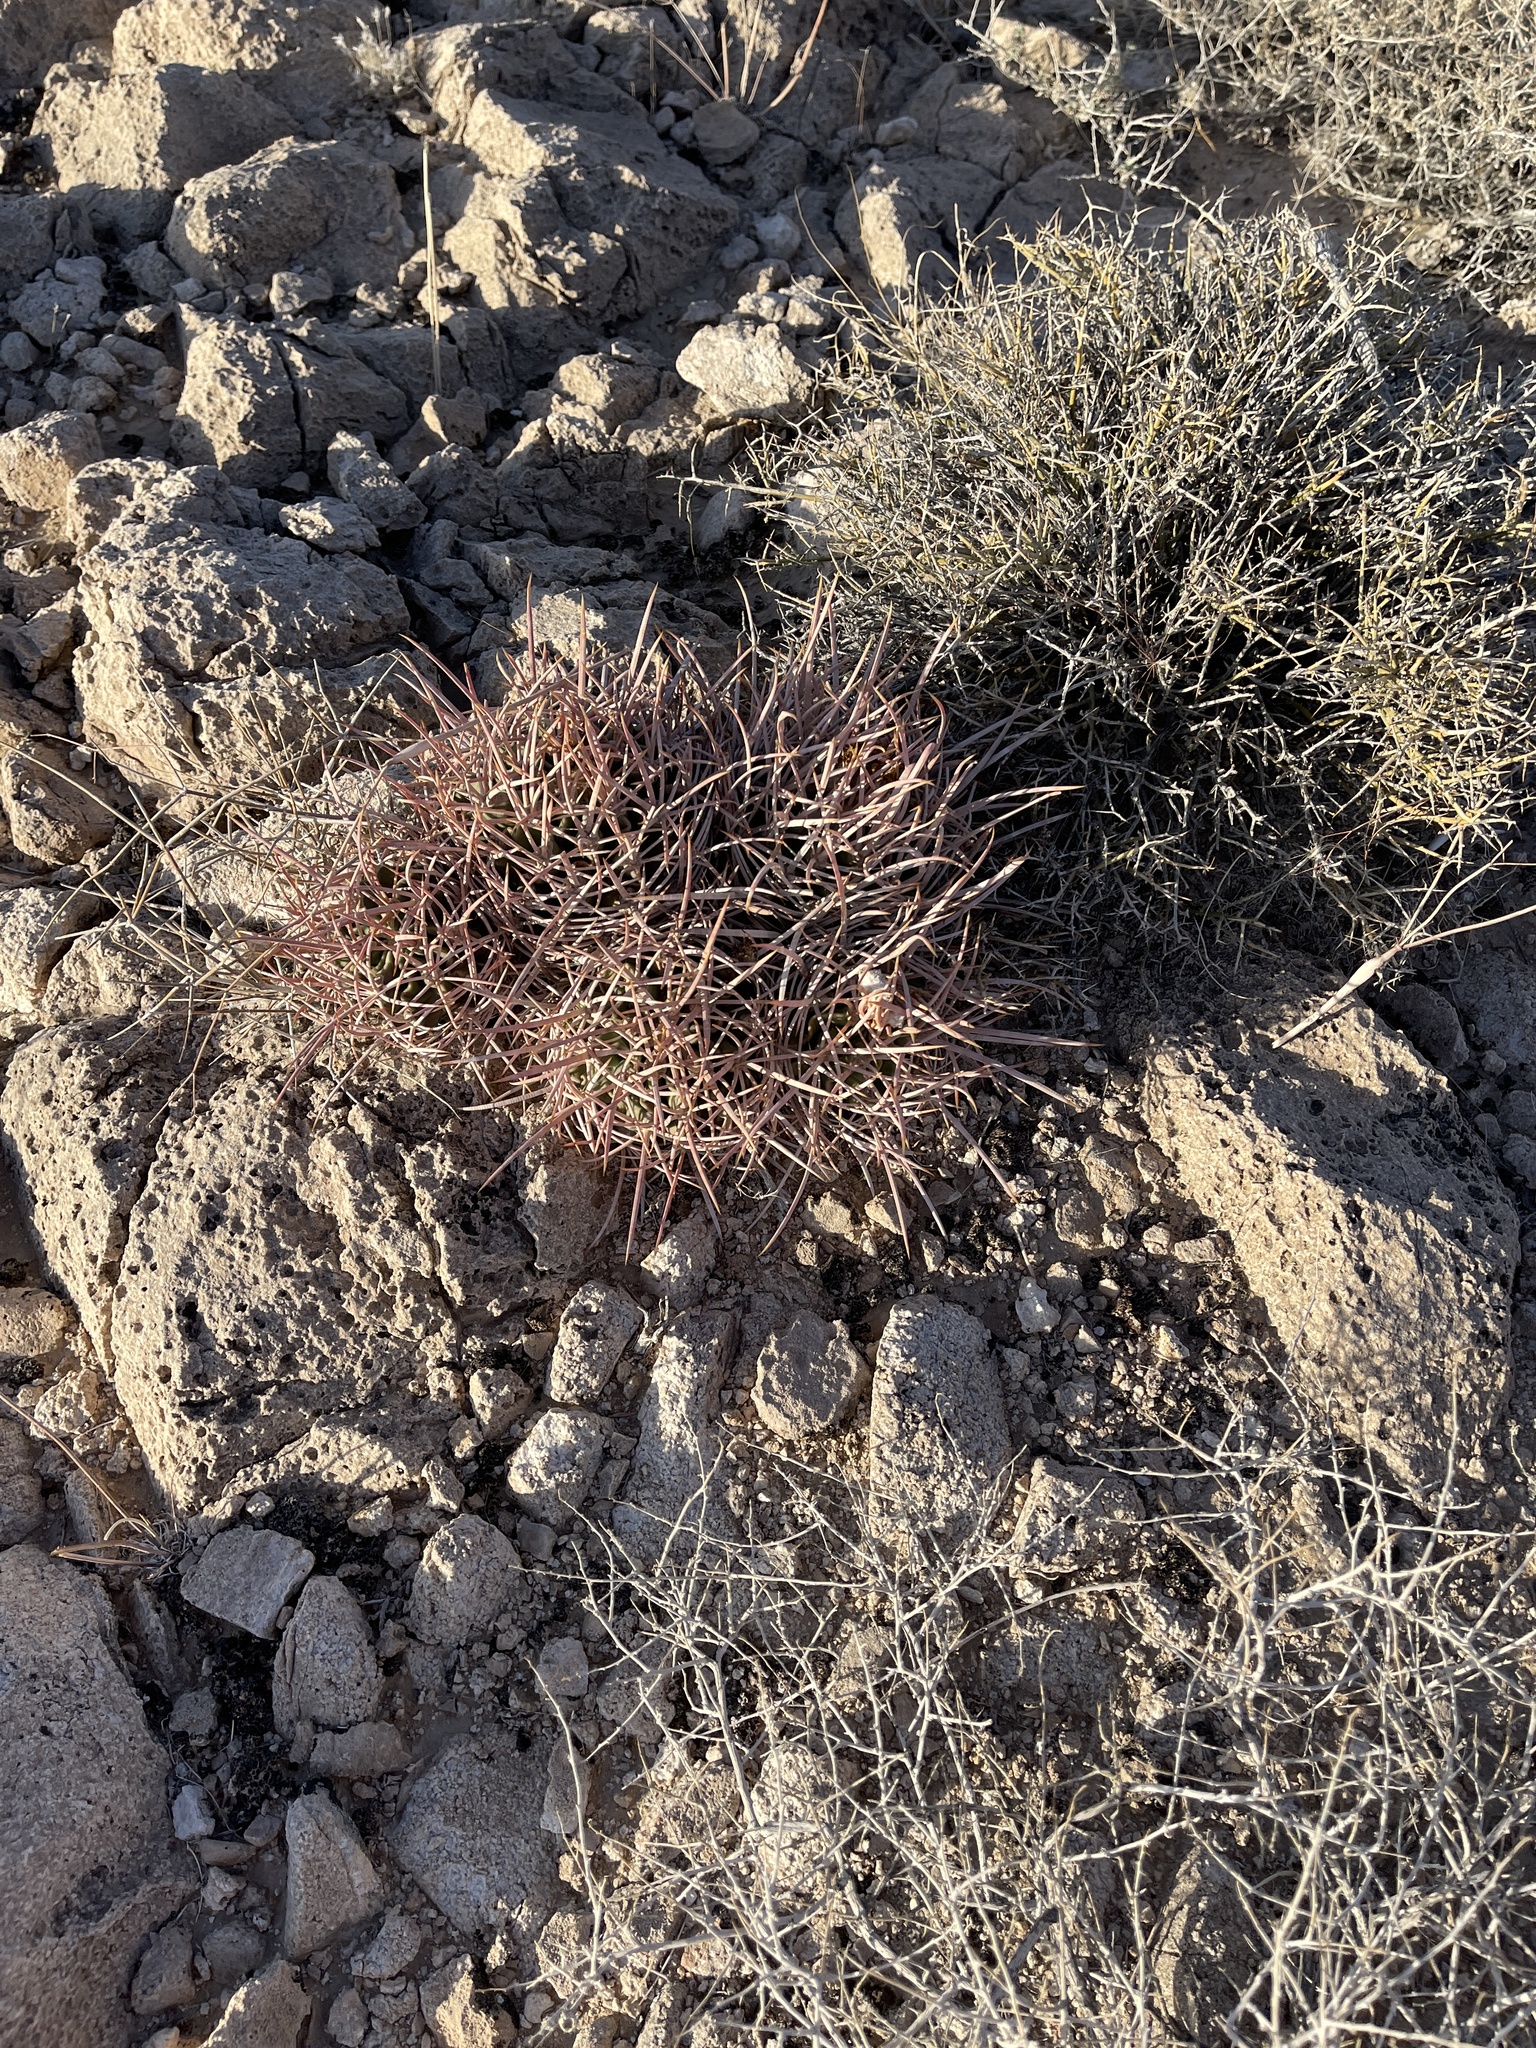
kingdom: Plantae
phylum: Tracheophyta
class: Magnoliopsida
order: Caryophyllales
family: Cactaceae
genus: Echinocactus
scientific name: Echinocactus polycephalus
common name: Cottontop cactus
